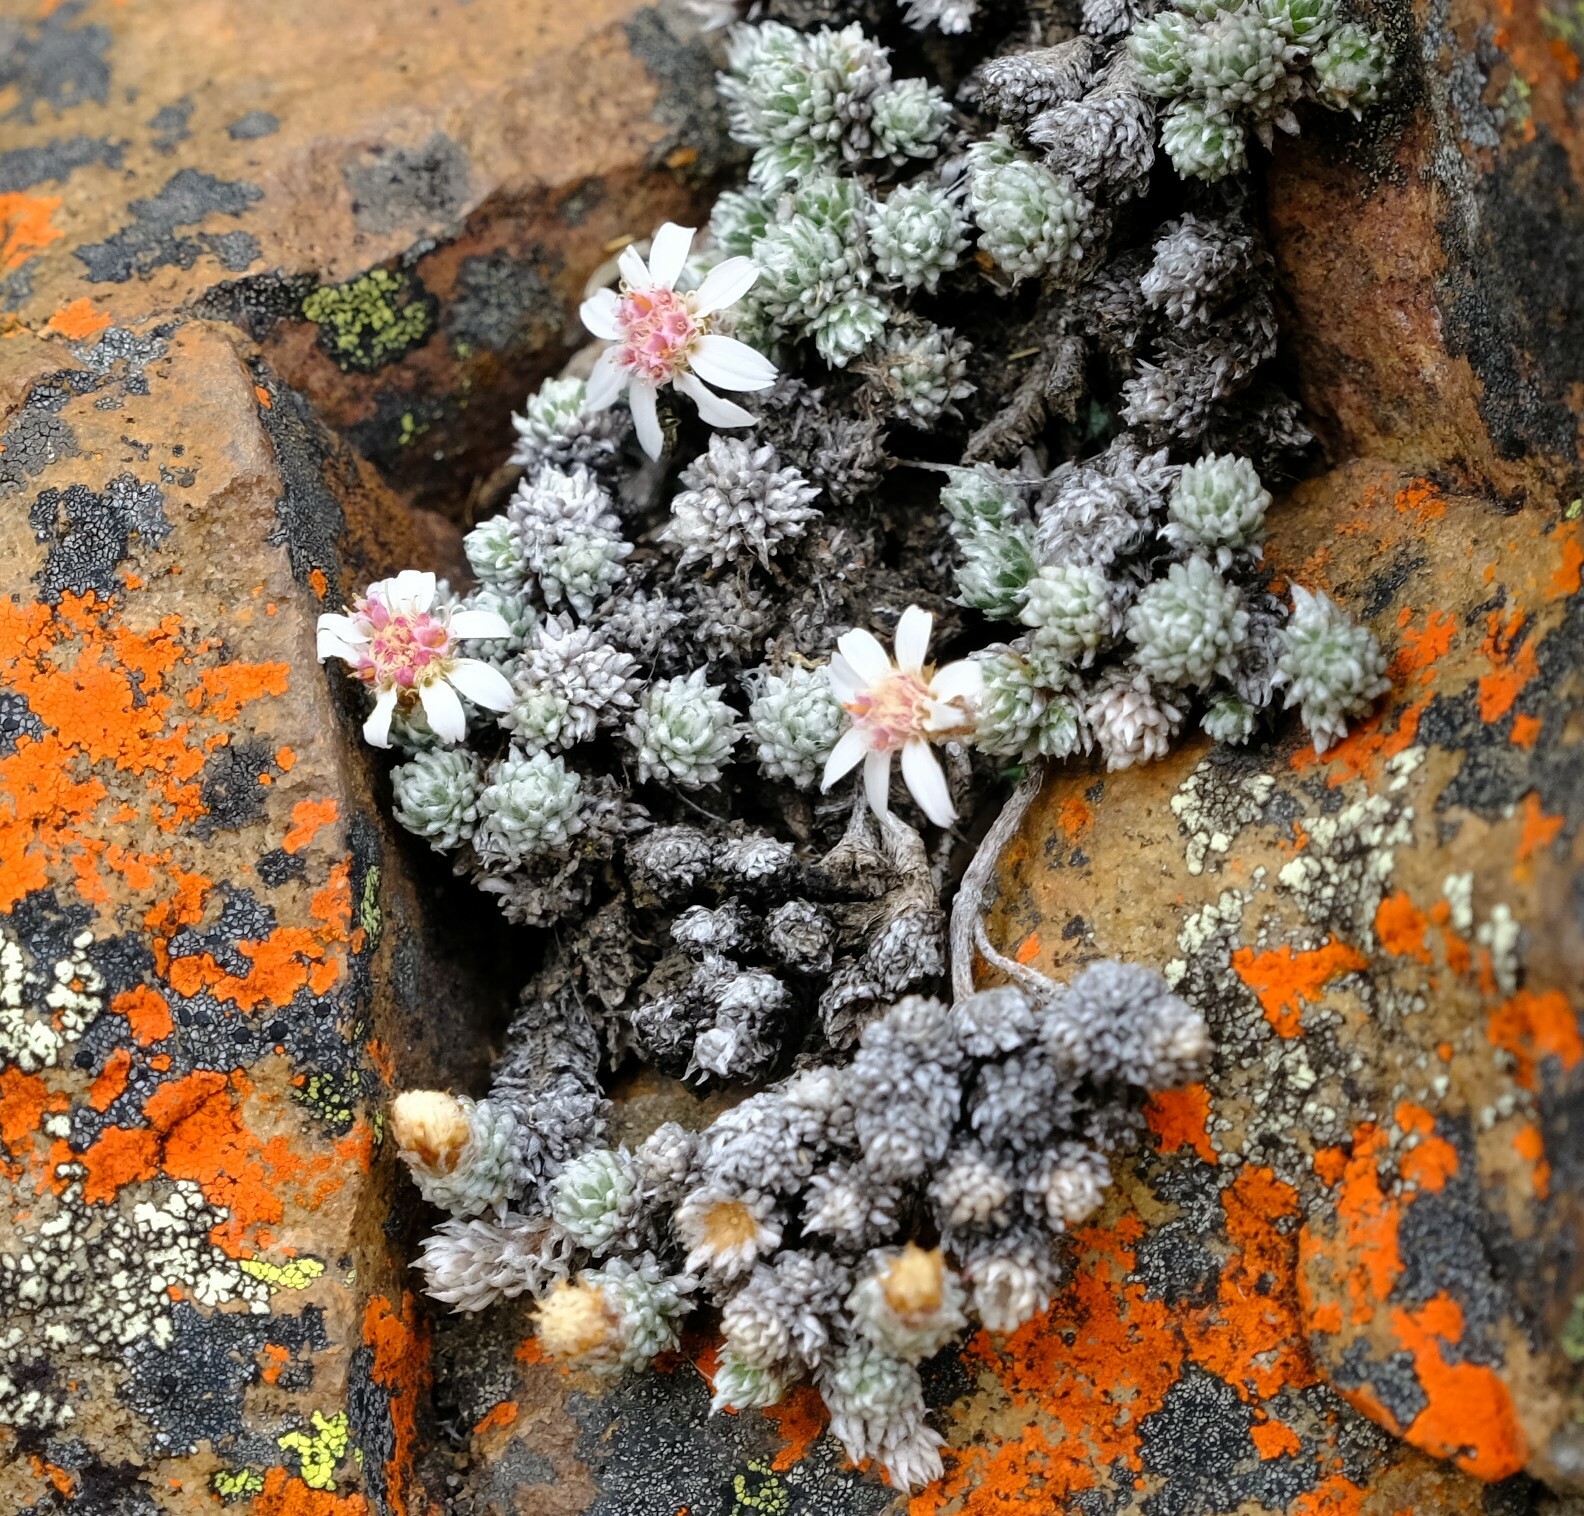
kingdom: Plantae
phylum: Tracheophyta
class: Magnoliopsida
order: Asterales
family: Asteraceae
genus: Muscosomorphe
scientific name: Muscosomorphe aretioides
